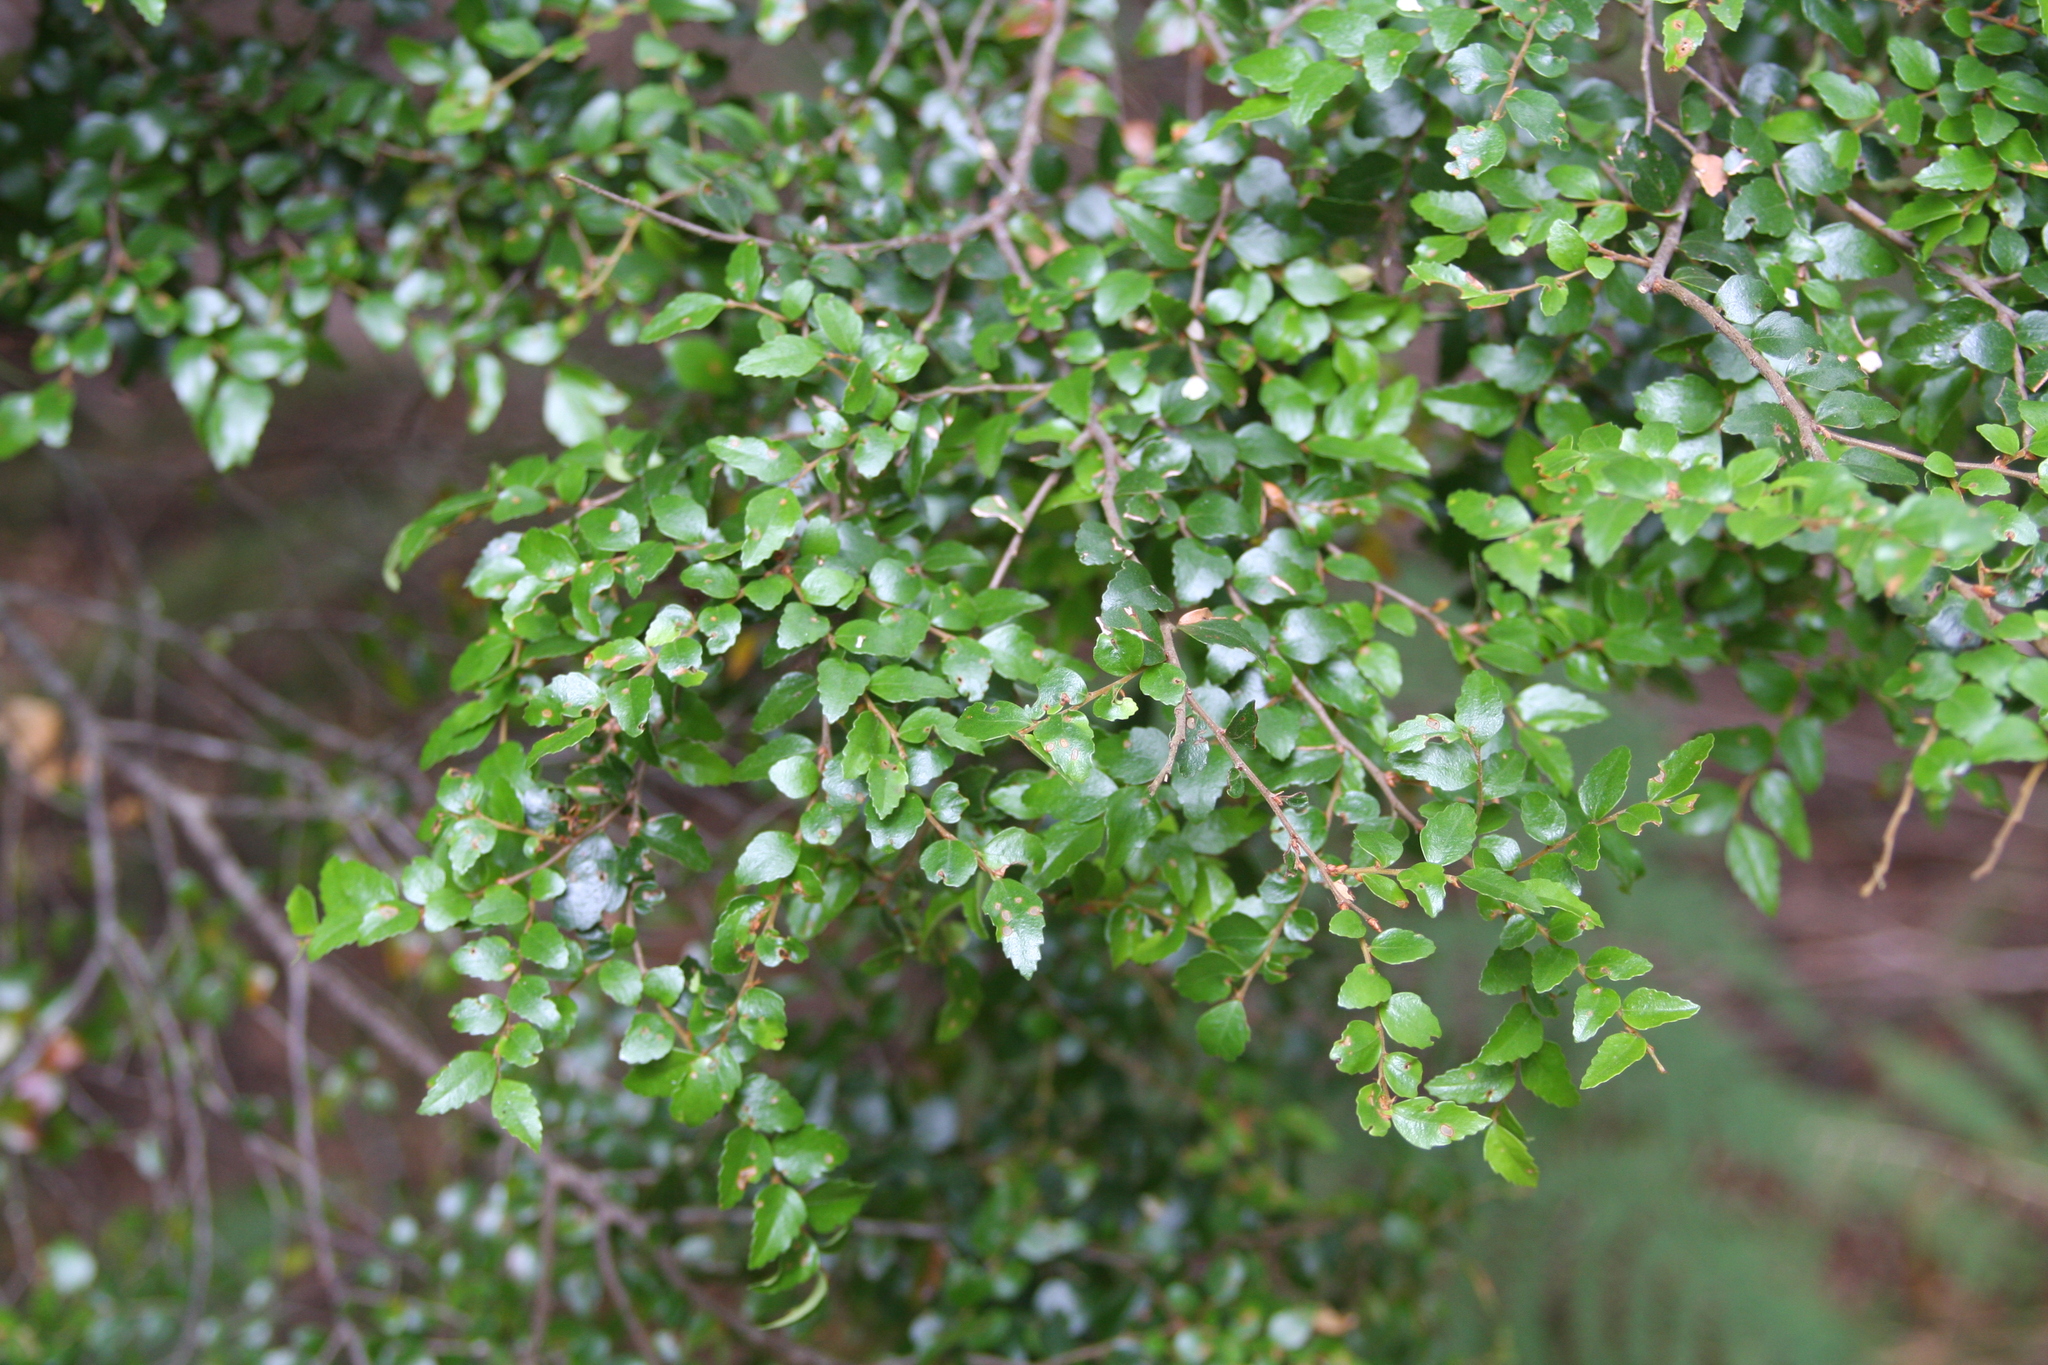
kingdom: Plantae
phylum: Tracheophyta
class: Magnoliopsida
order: Fagales
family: Nothofagaceae
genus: Nothofagus
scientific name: Nothofagus cunninghamii
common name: Myrtle beech
